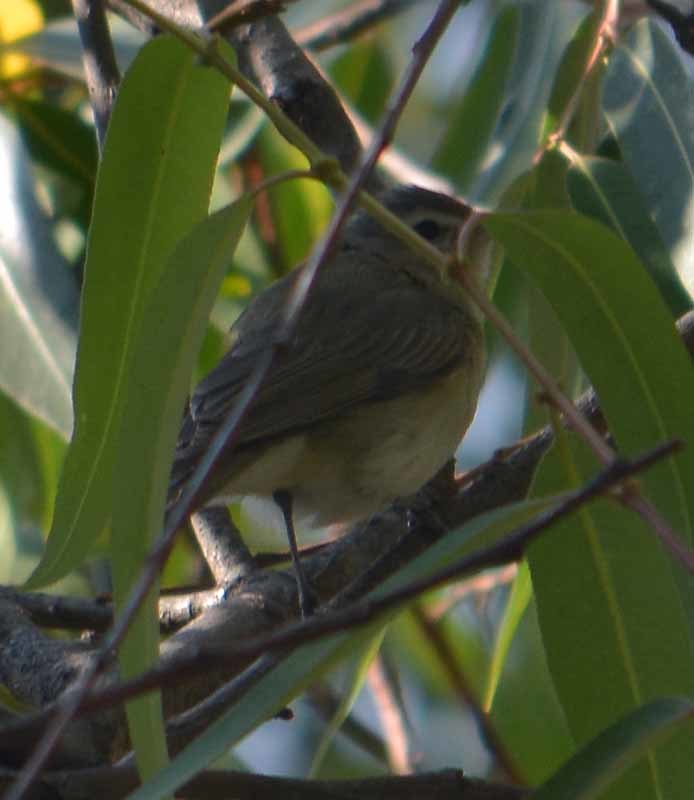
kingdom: Animalia
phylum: Chordata
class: Aves
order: Passeriformes
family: Vireonidae
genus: Vireo
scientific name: Vireo gilvus
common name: Warbling vireo
